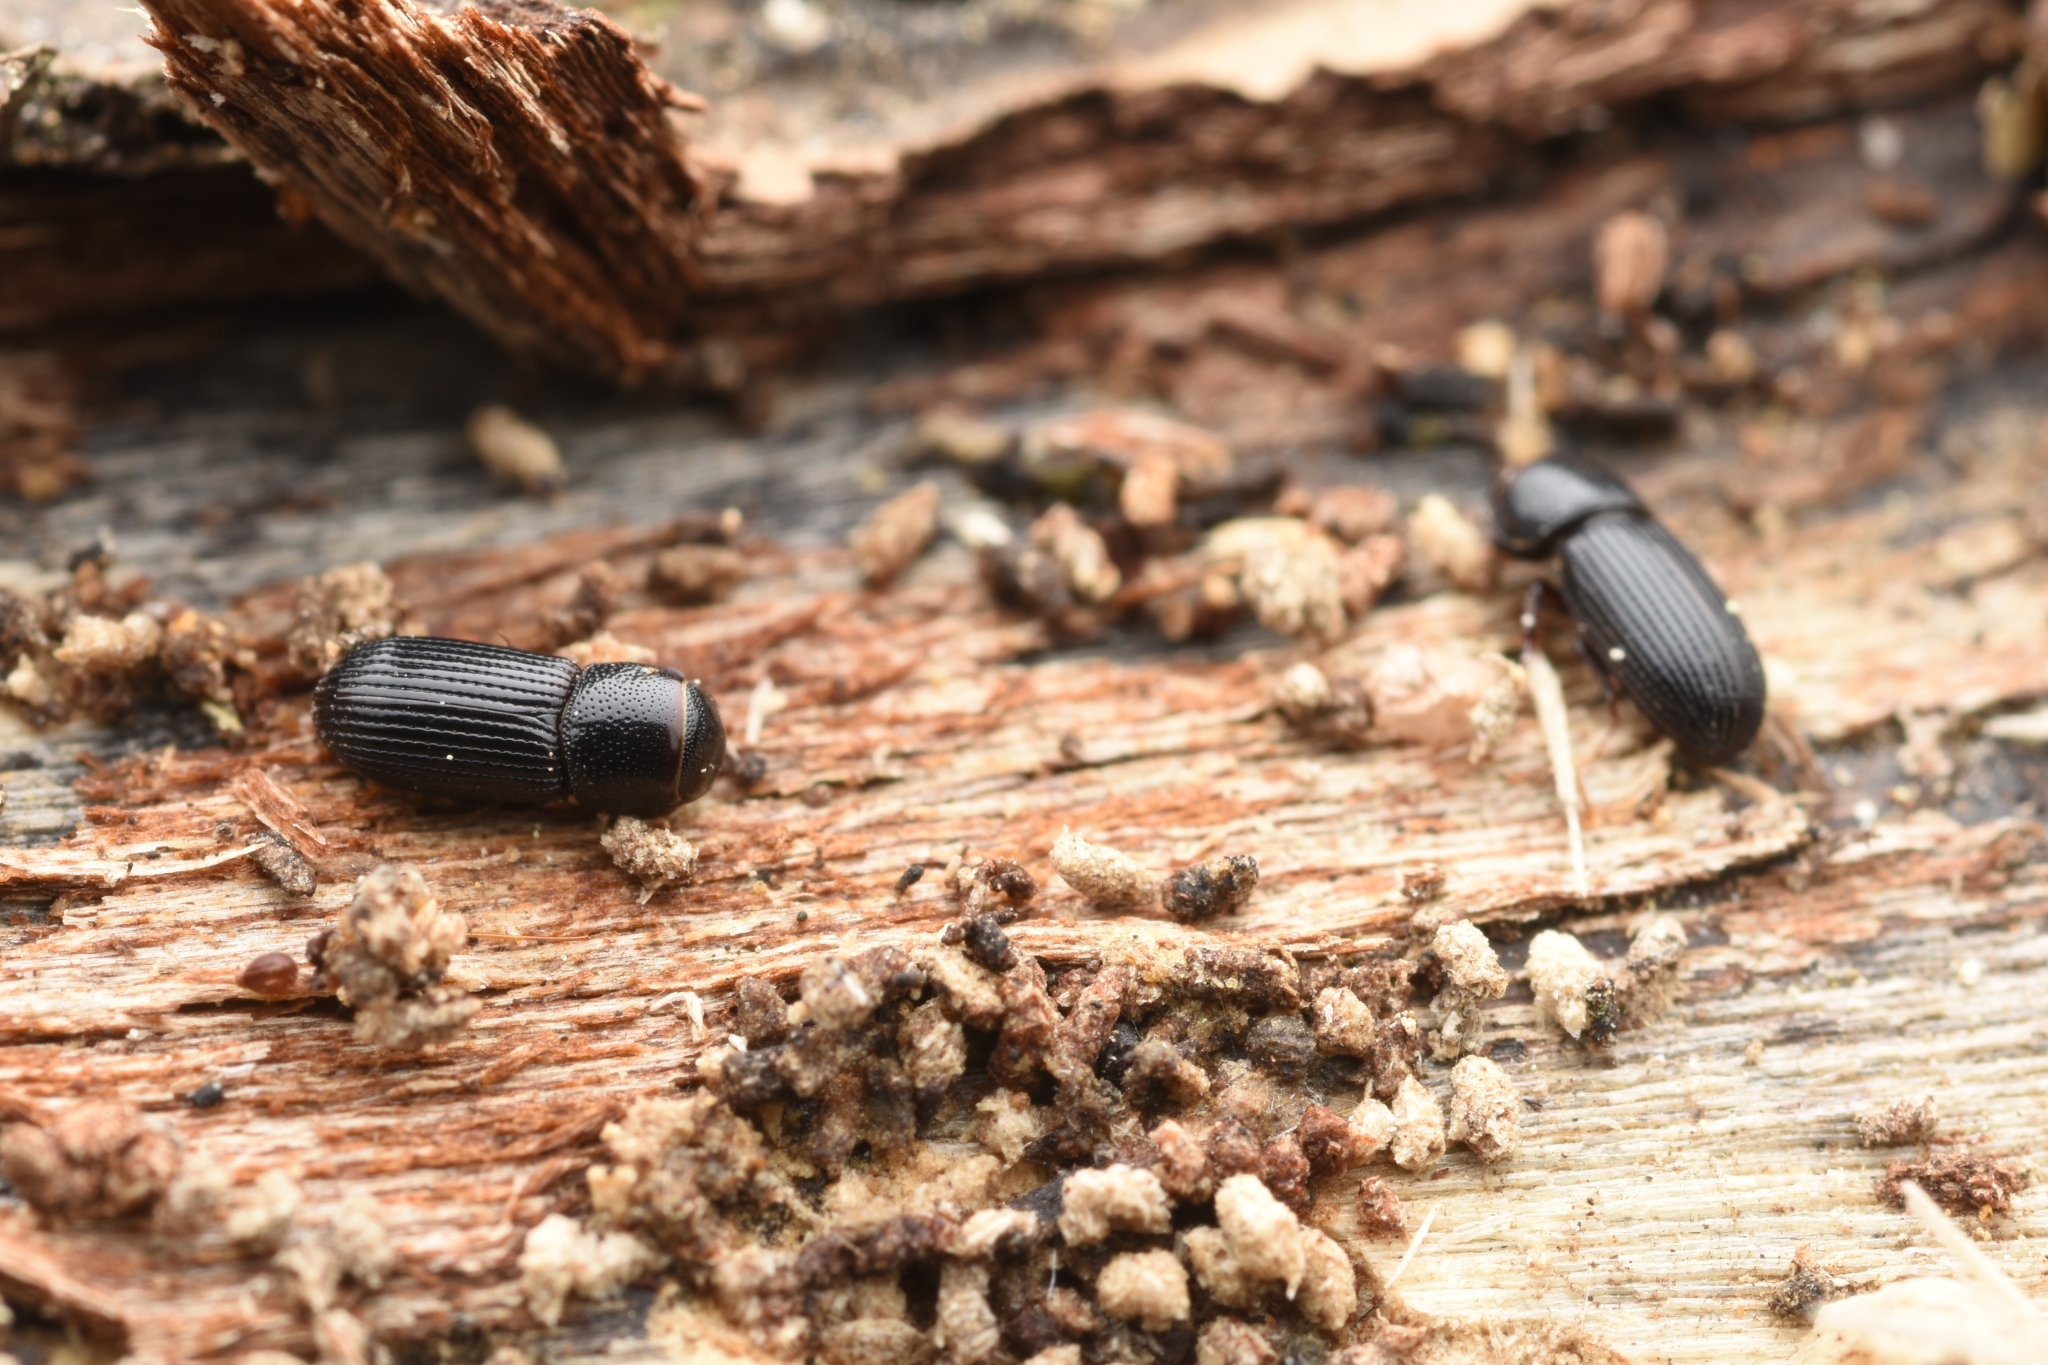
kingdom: Animalia
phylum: Arthropoda
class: Insecta
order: Coleoptera
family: Scarabaeidae
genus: Saprosites
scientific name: Saprosites japonicus
